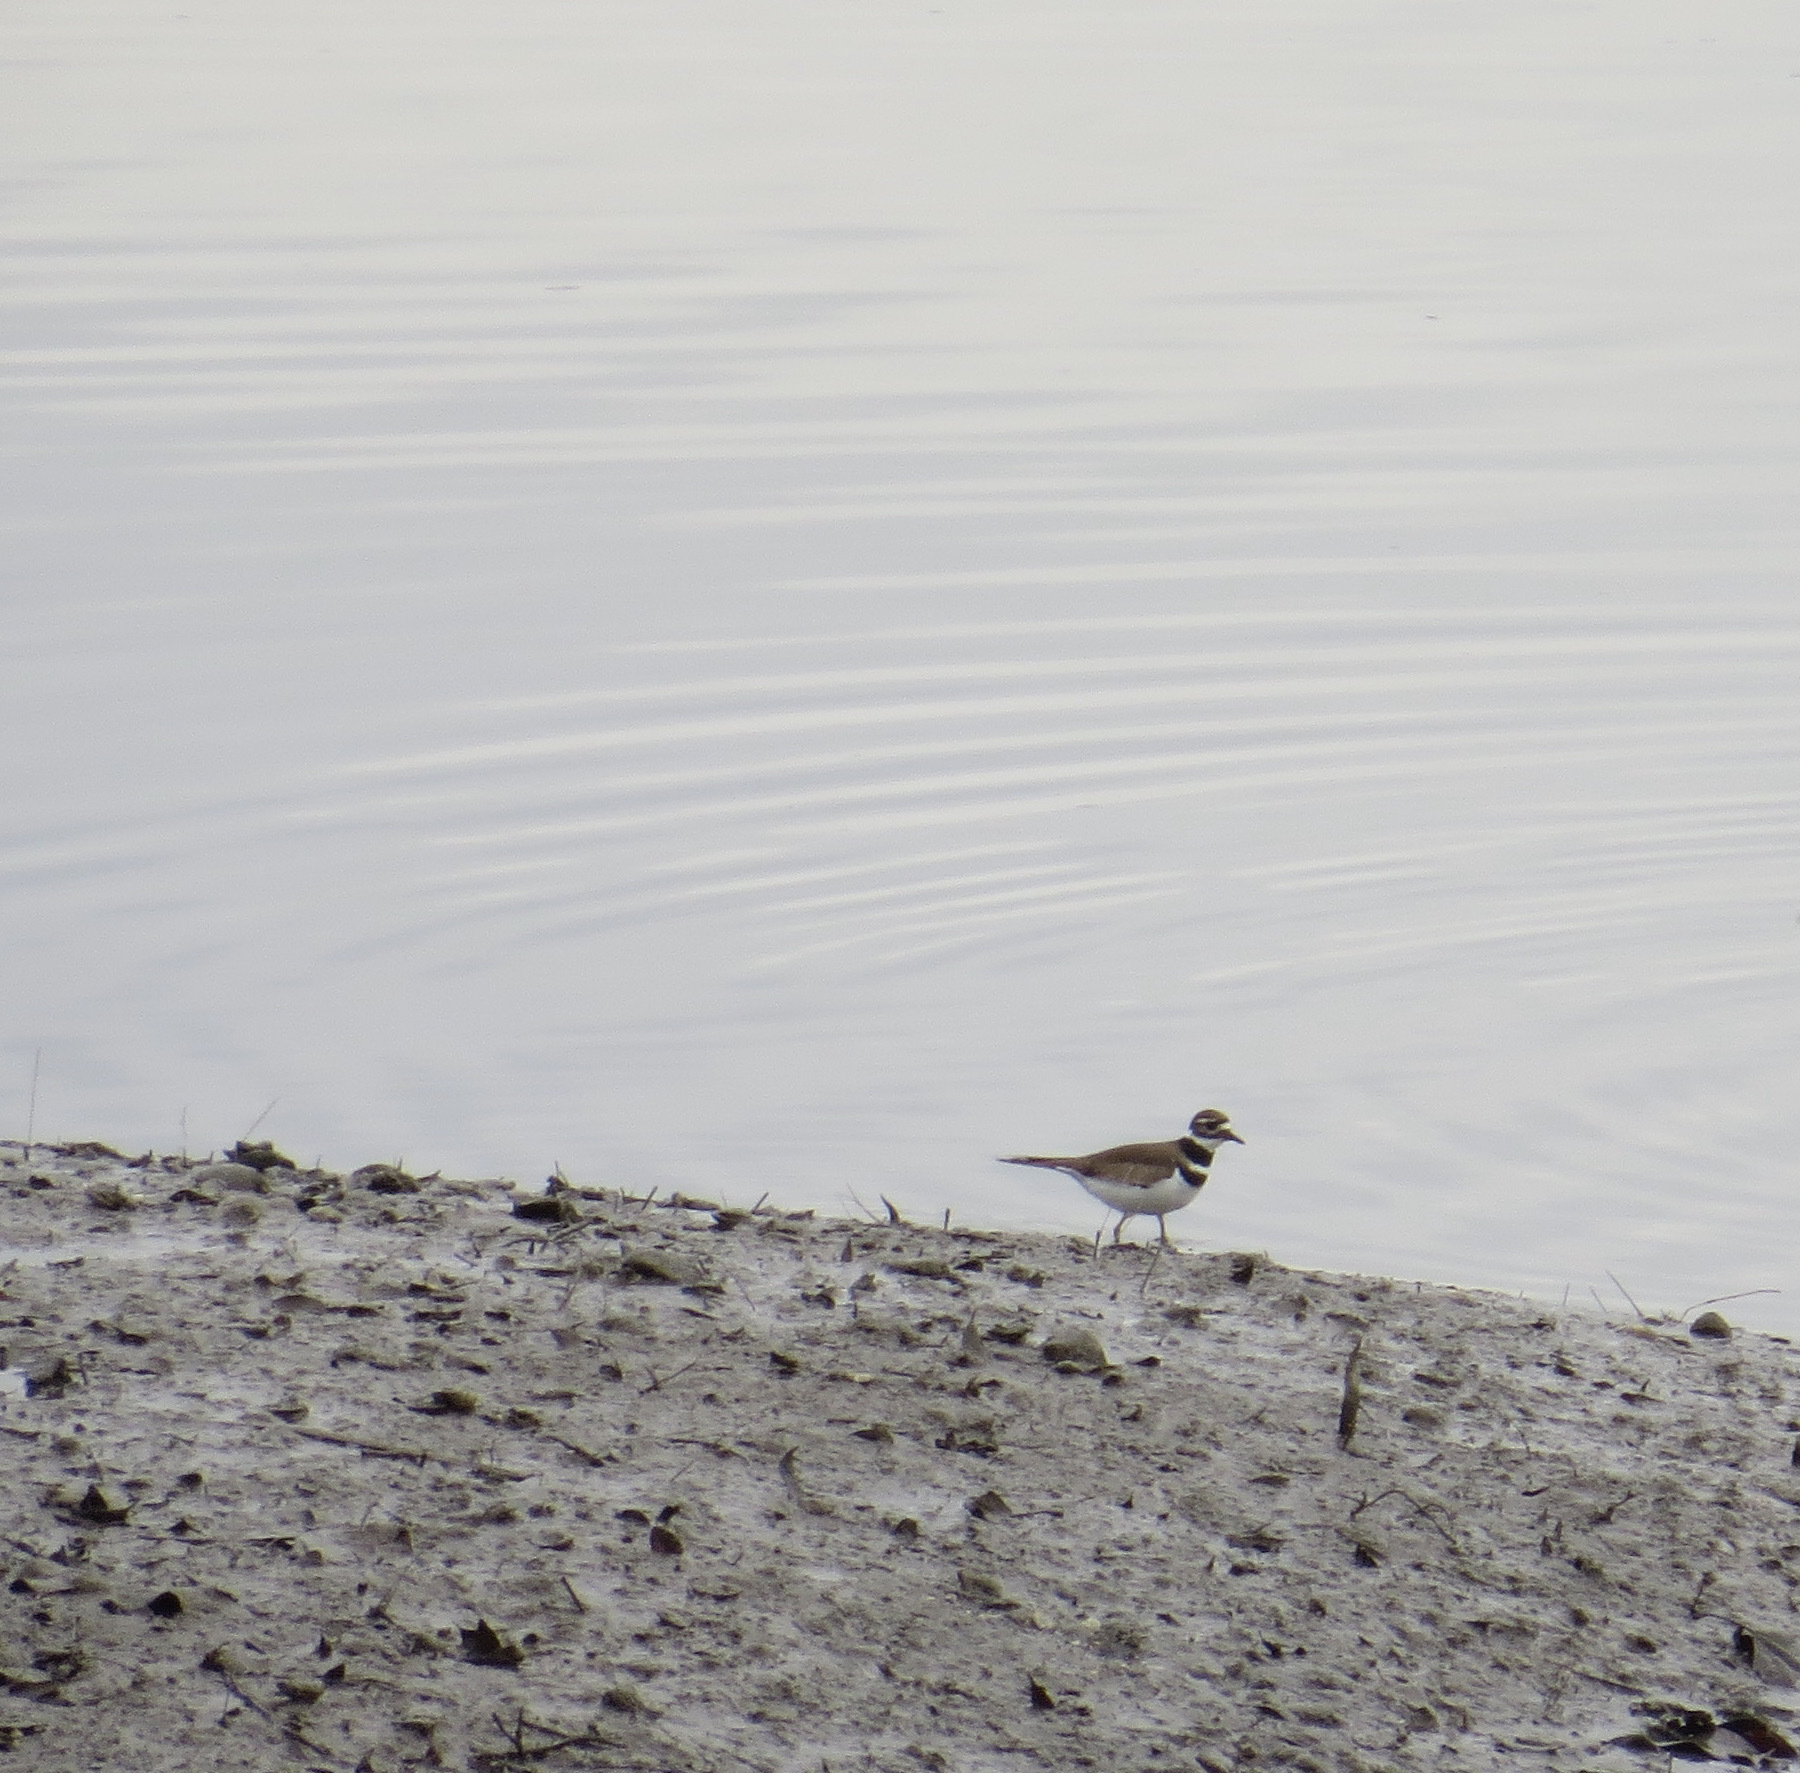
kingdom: Animalia
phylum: Chordata
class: Aves
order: Charadriiformes
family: Charadriidae
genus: Charadrius
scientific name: Charadrius vociferus
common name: Killdeer
